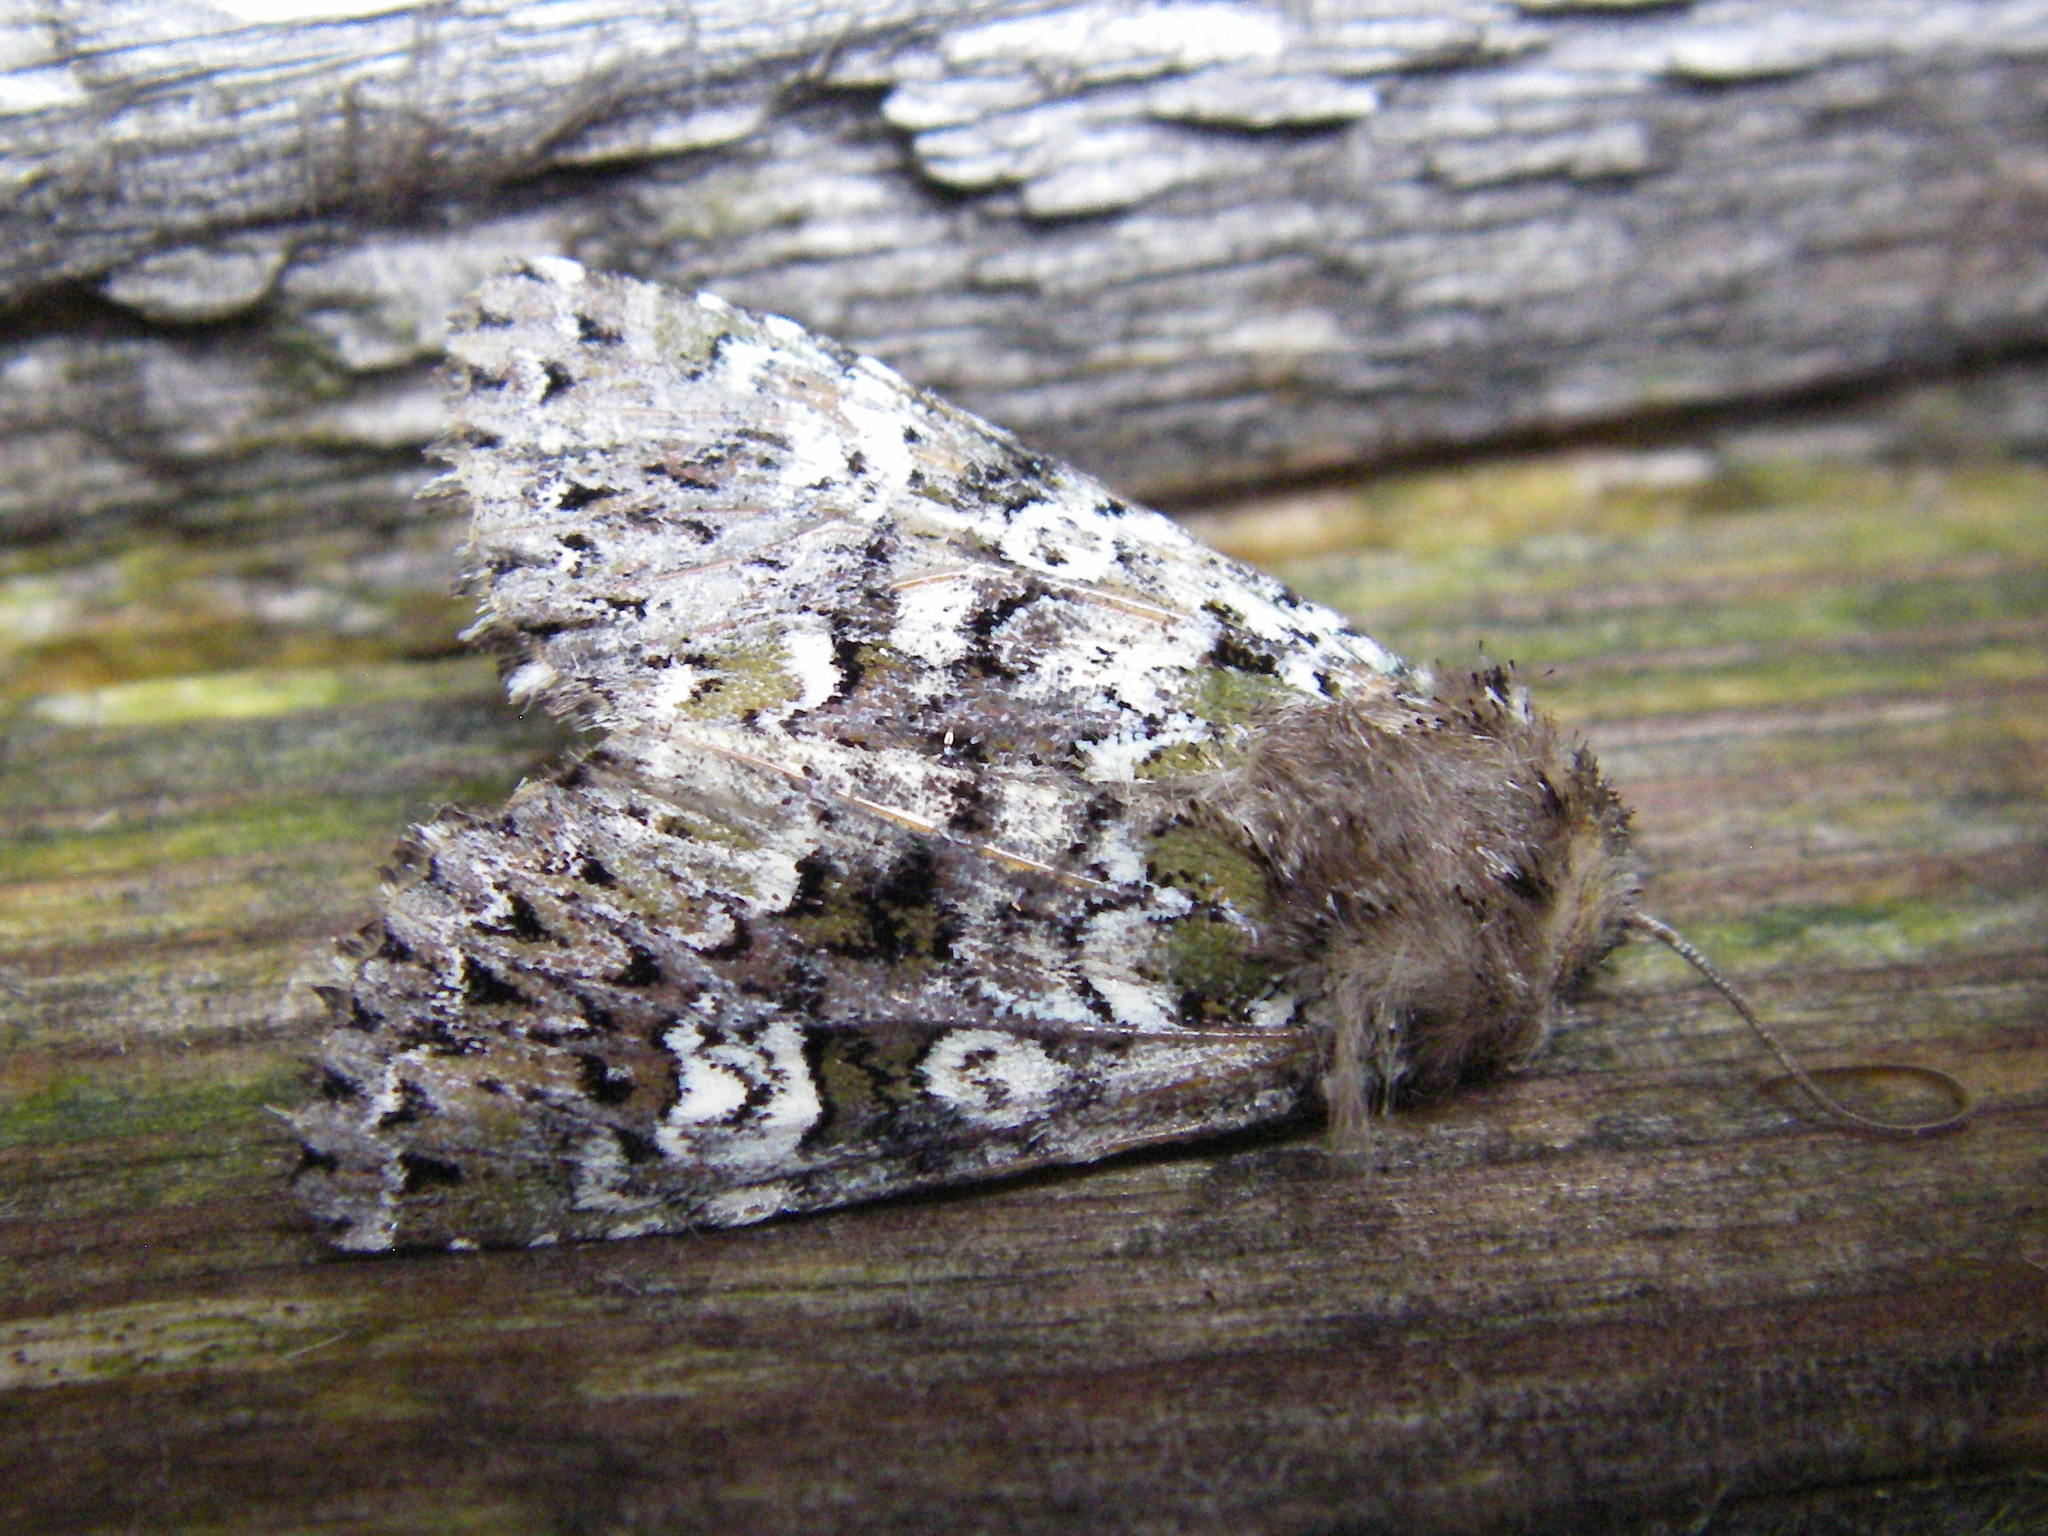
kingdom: Animalia
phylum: Arthropoda
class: Insecta
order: Lepidoptera
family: Noctuidae
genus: Crypsedra
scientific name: Crypsedra gemmea
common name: Cameo
